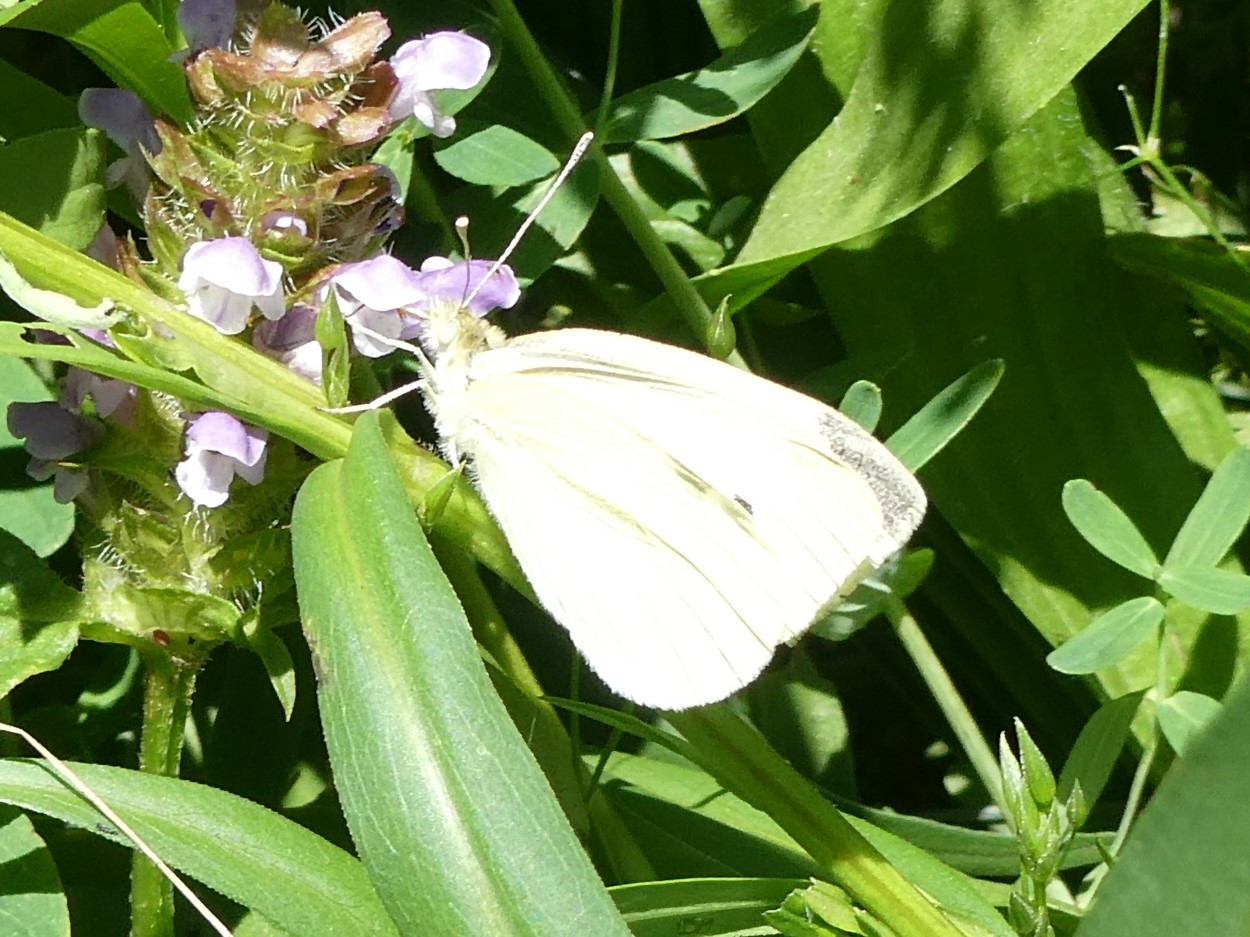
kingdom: Animalia
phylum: Arthropoda
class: Insecta
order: Lepidoptera
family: Pieridae
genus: Pieris
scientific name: Pieris rapae
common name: Small white
